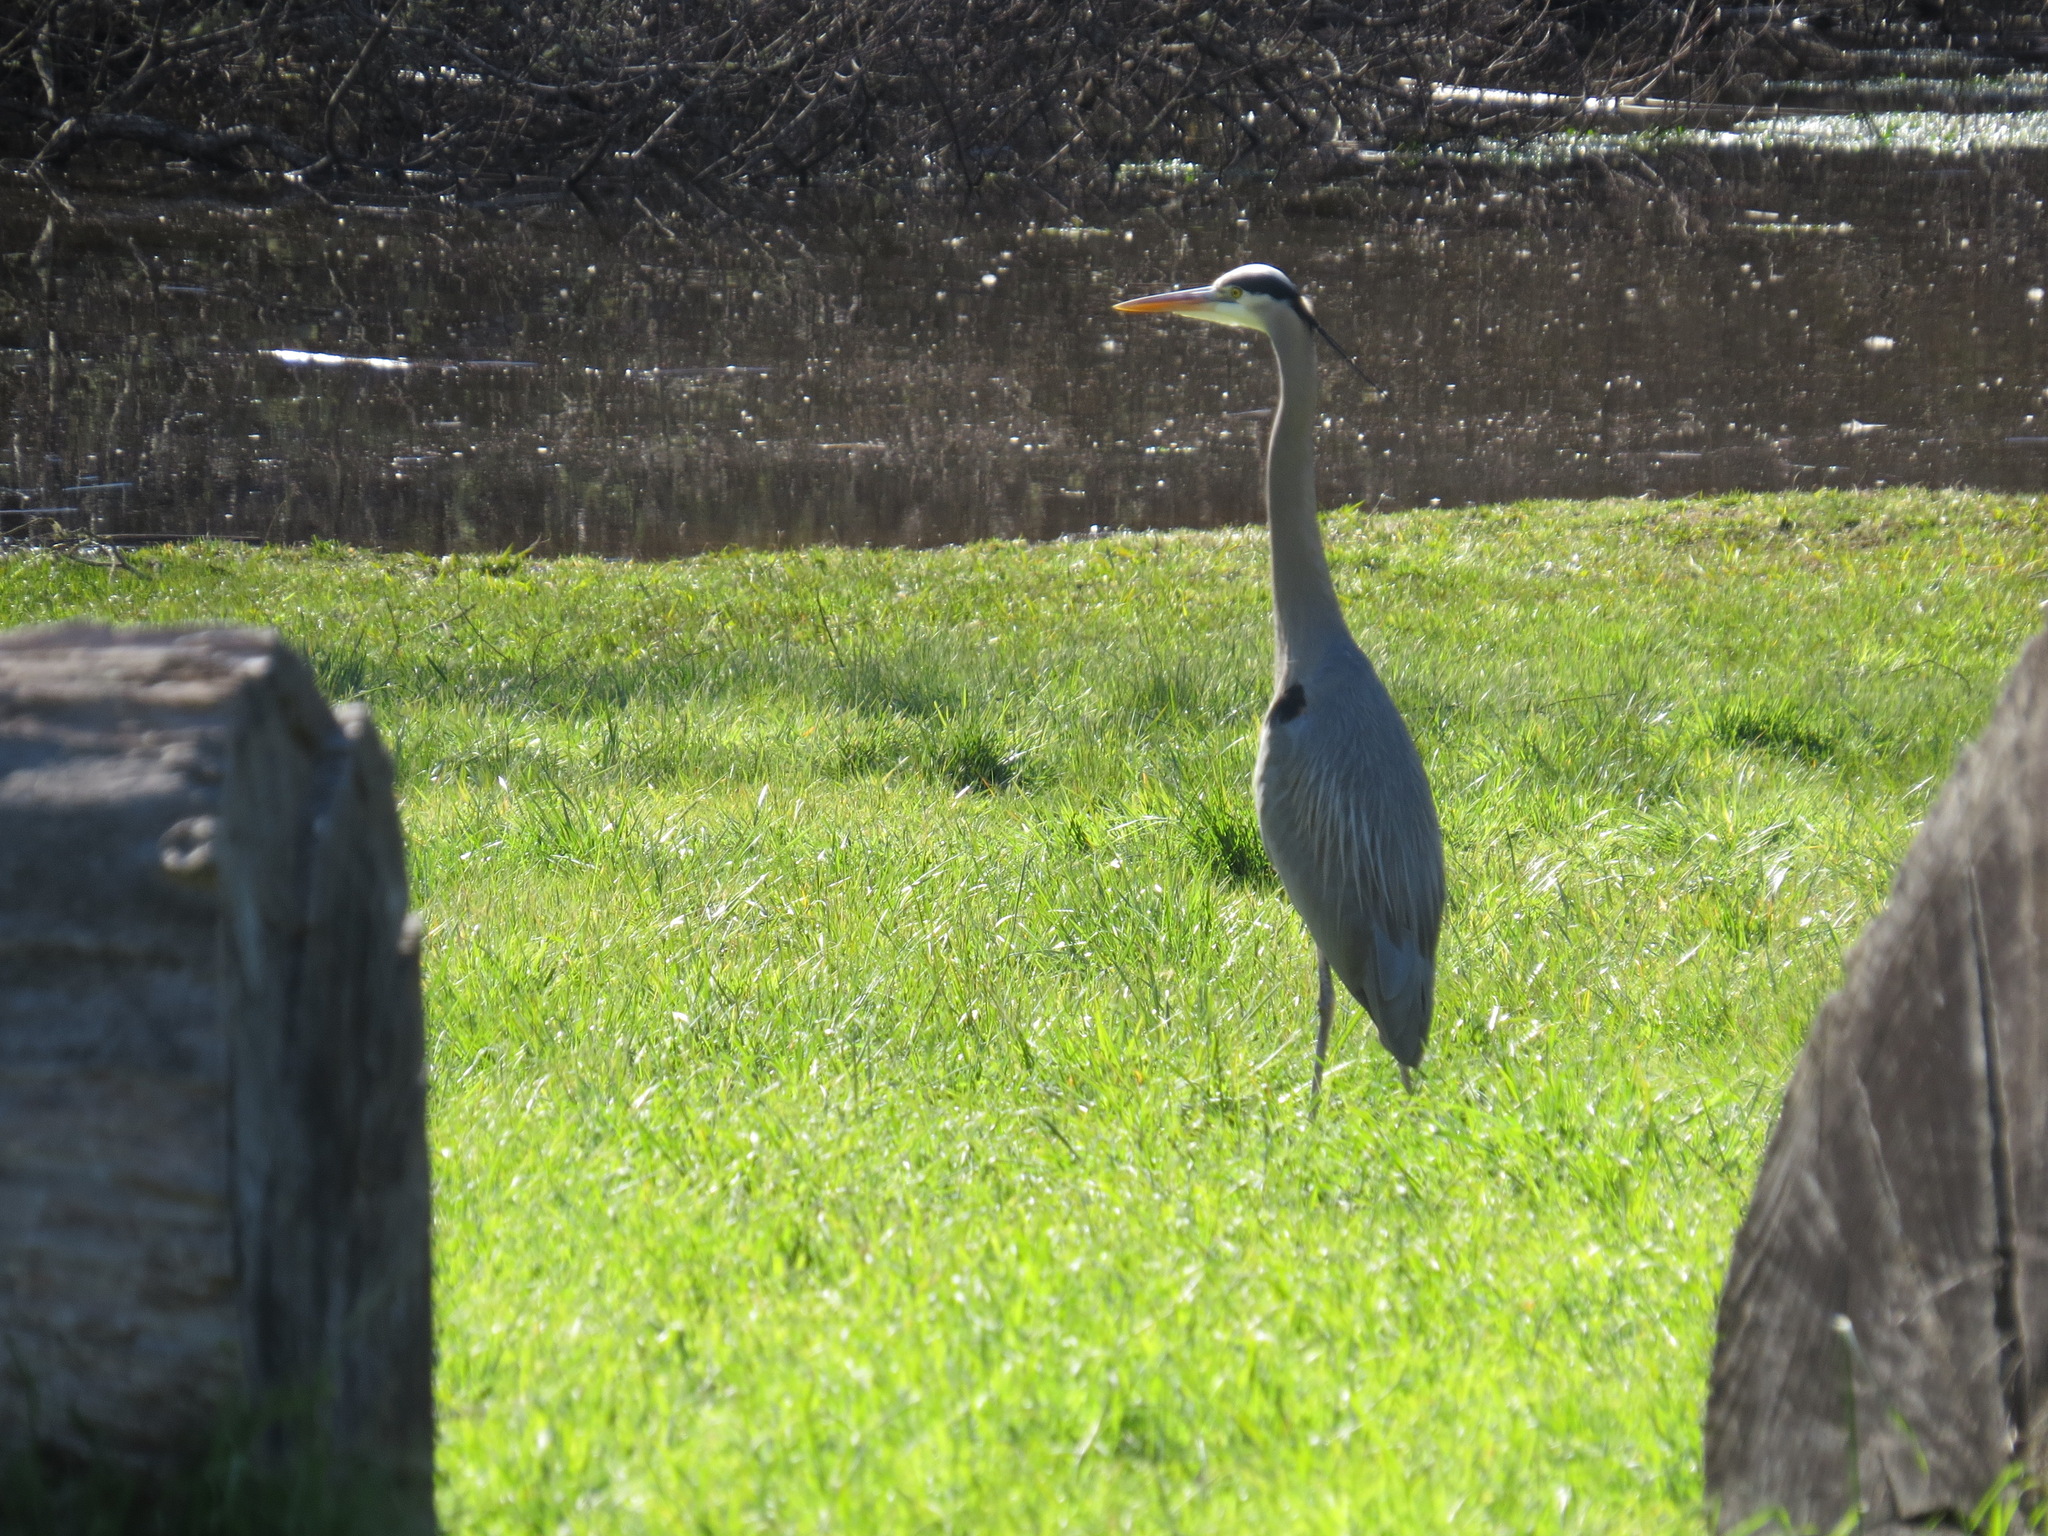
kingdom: Animalia
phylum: Chordata
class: Aves
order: Pelecaniformes
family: Ardeidae
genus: Ardea
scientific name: Ardea herodias
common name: Great blue heron
